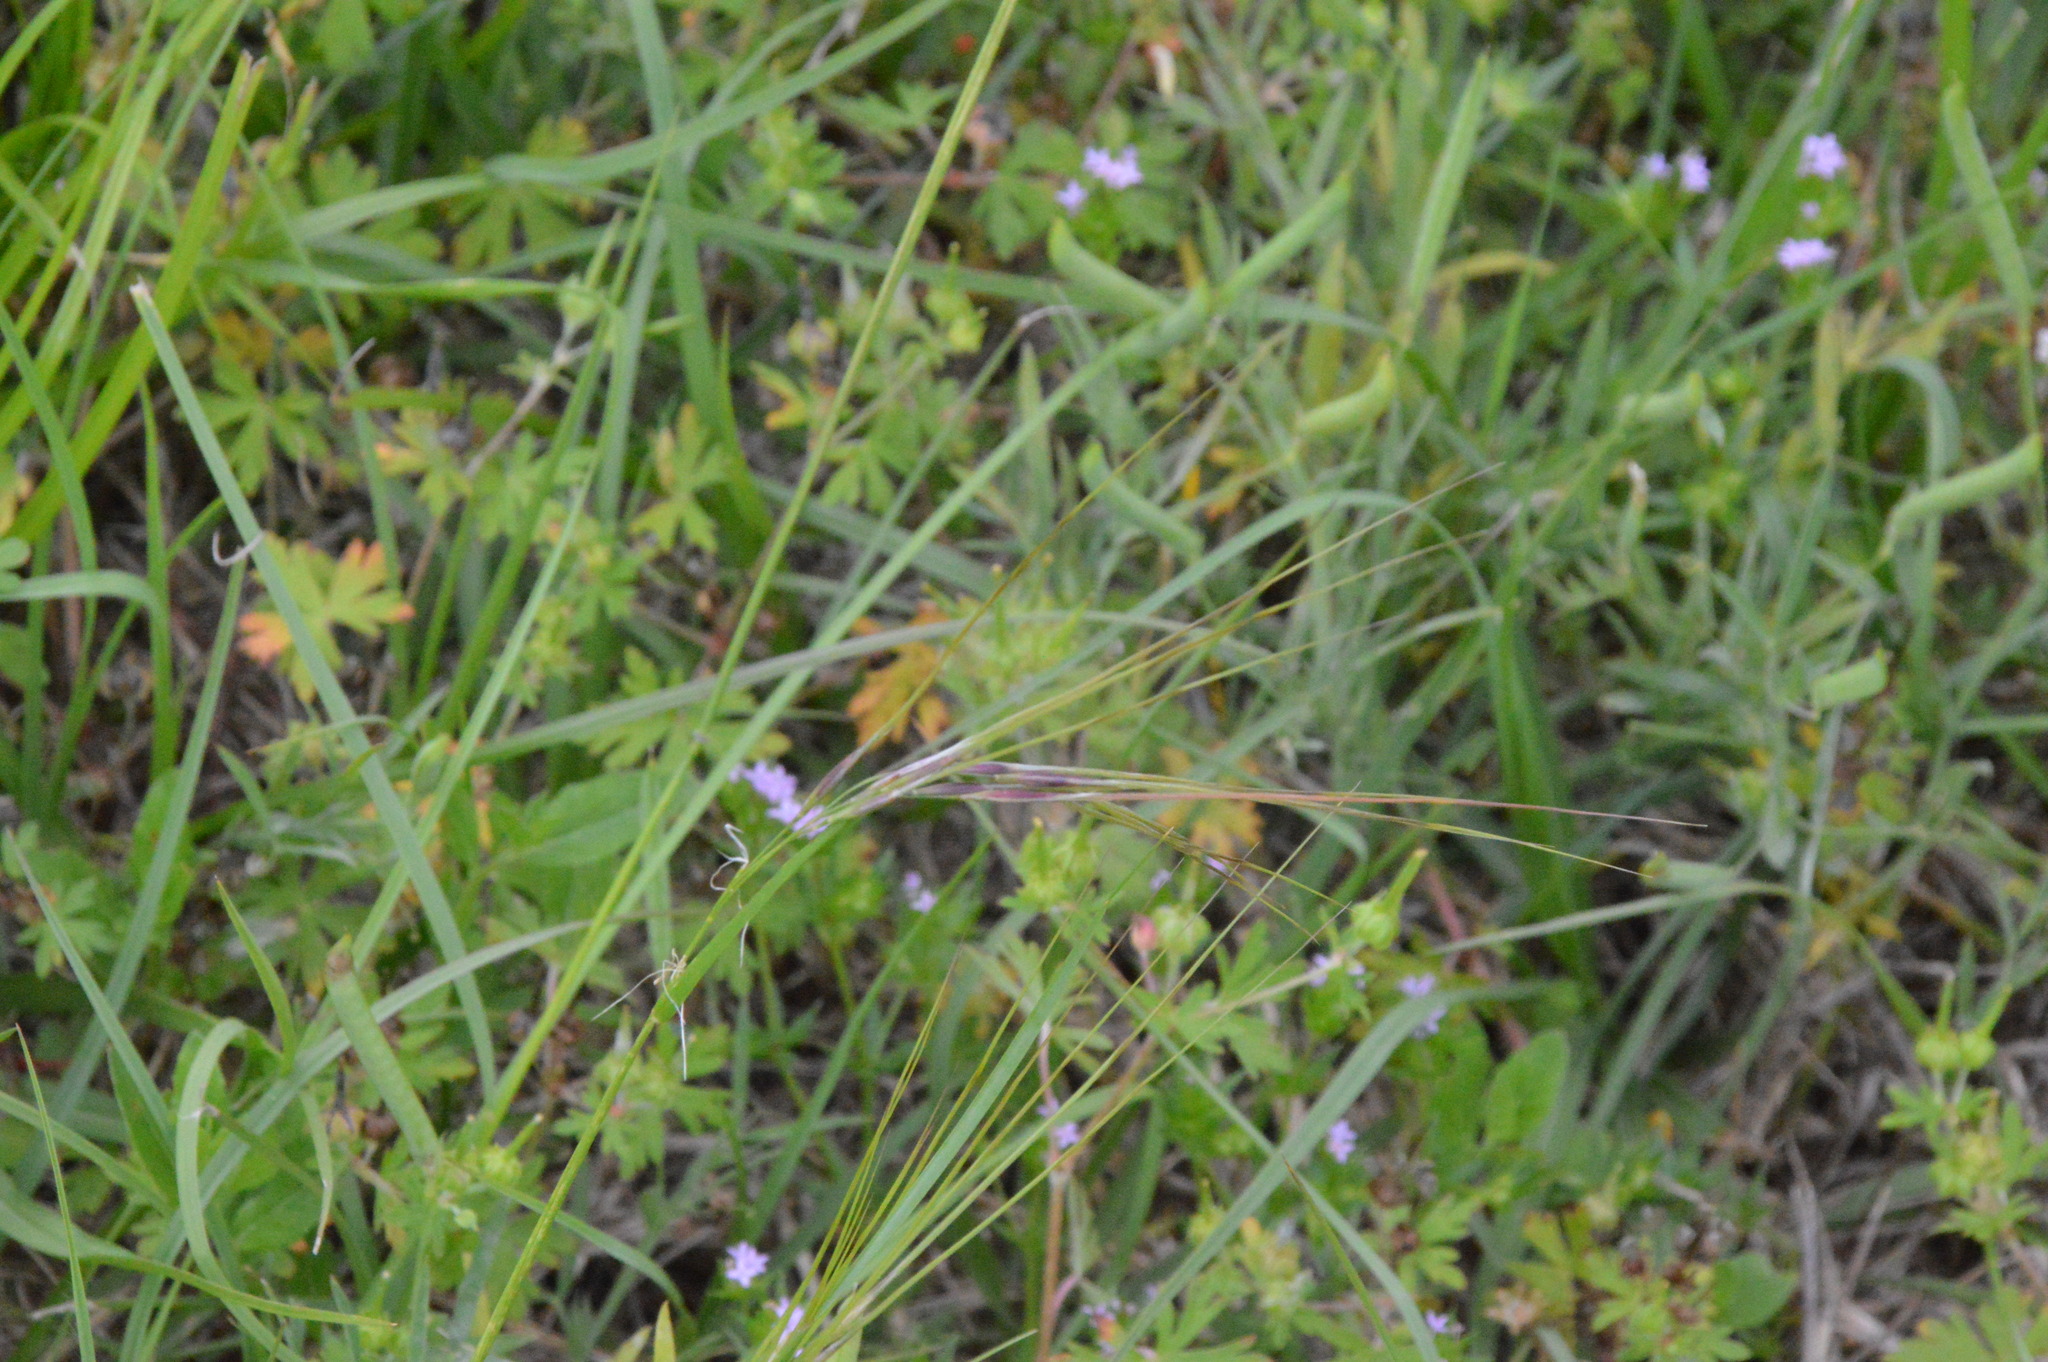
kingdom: Plantae
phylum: Tracheophyta
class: Liliopsida
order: Poales
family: Poaceae
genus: Nassella
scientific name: Nassella leucotricha
